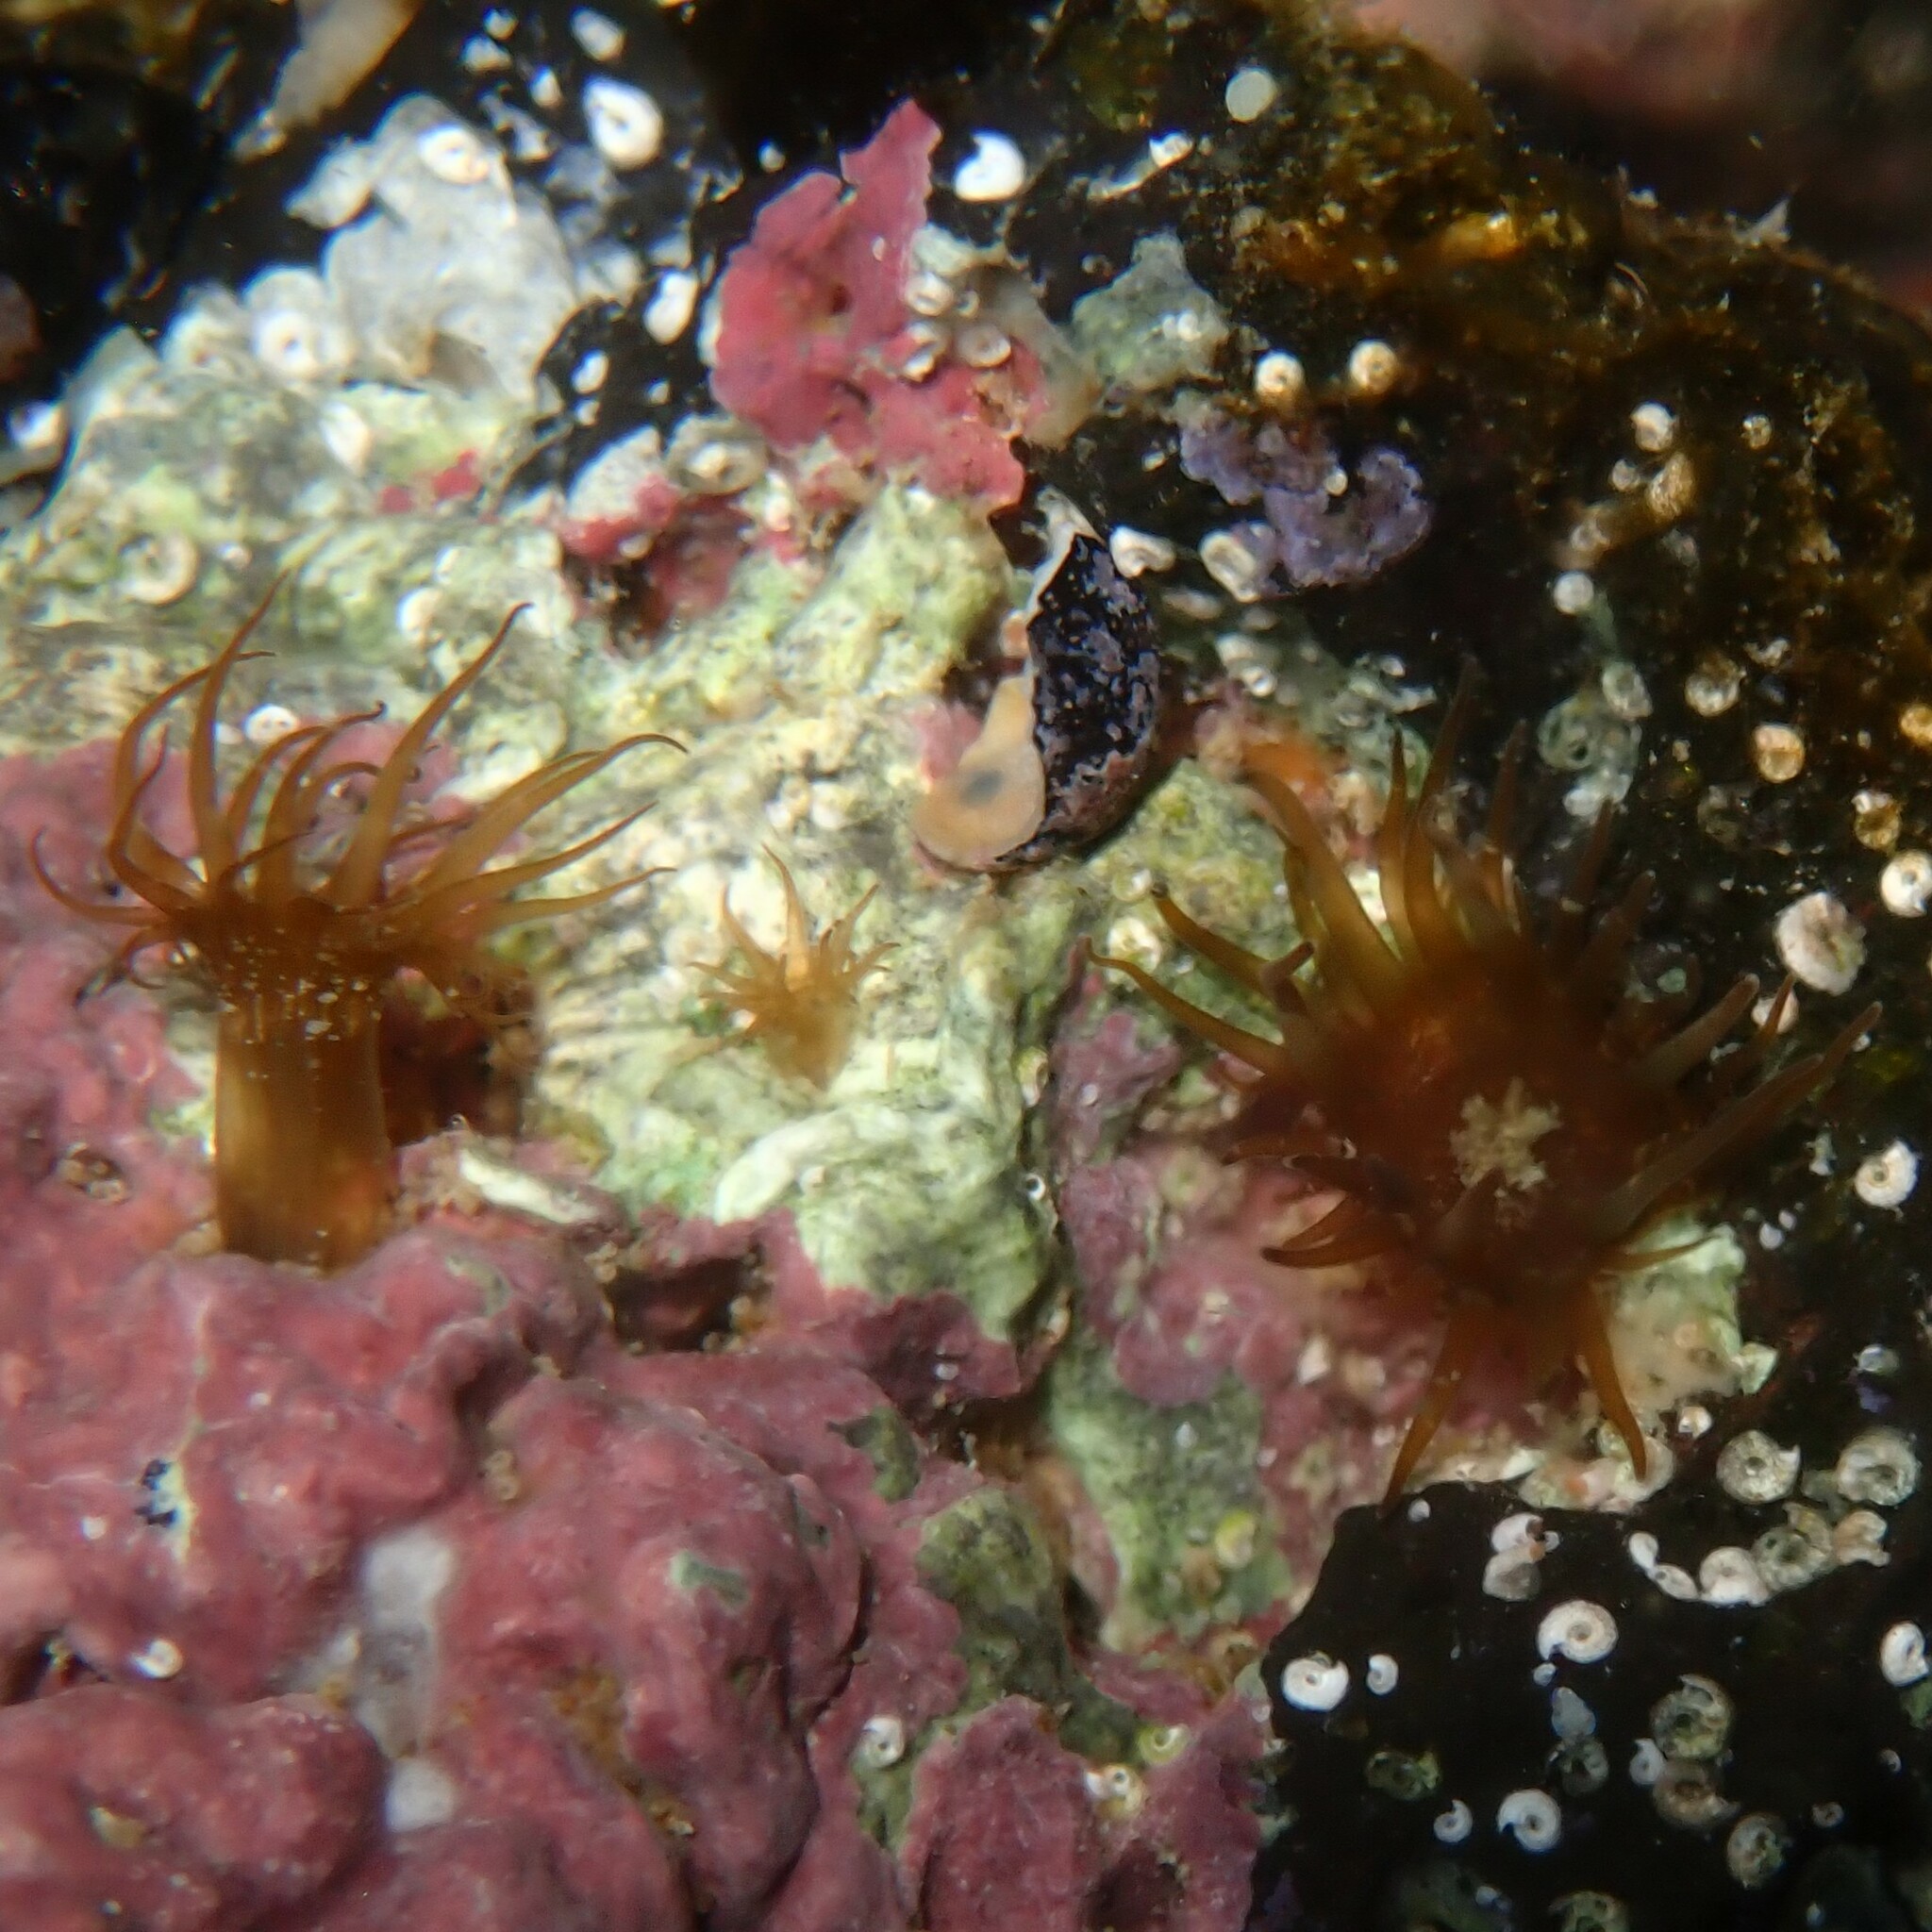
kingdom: Animalia
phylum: Cnidaria
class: Anthozoa
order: Actiniaria
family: Aiptasiidae
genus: Exaiptasia
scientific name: Exaiptasia diaphana
